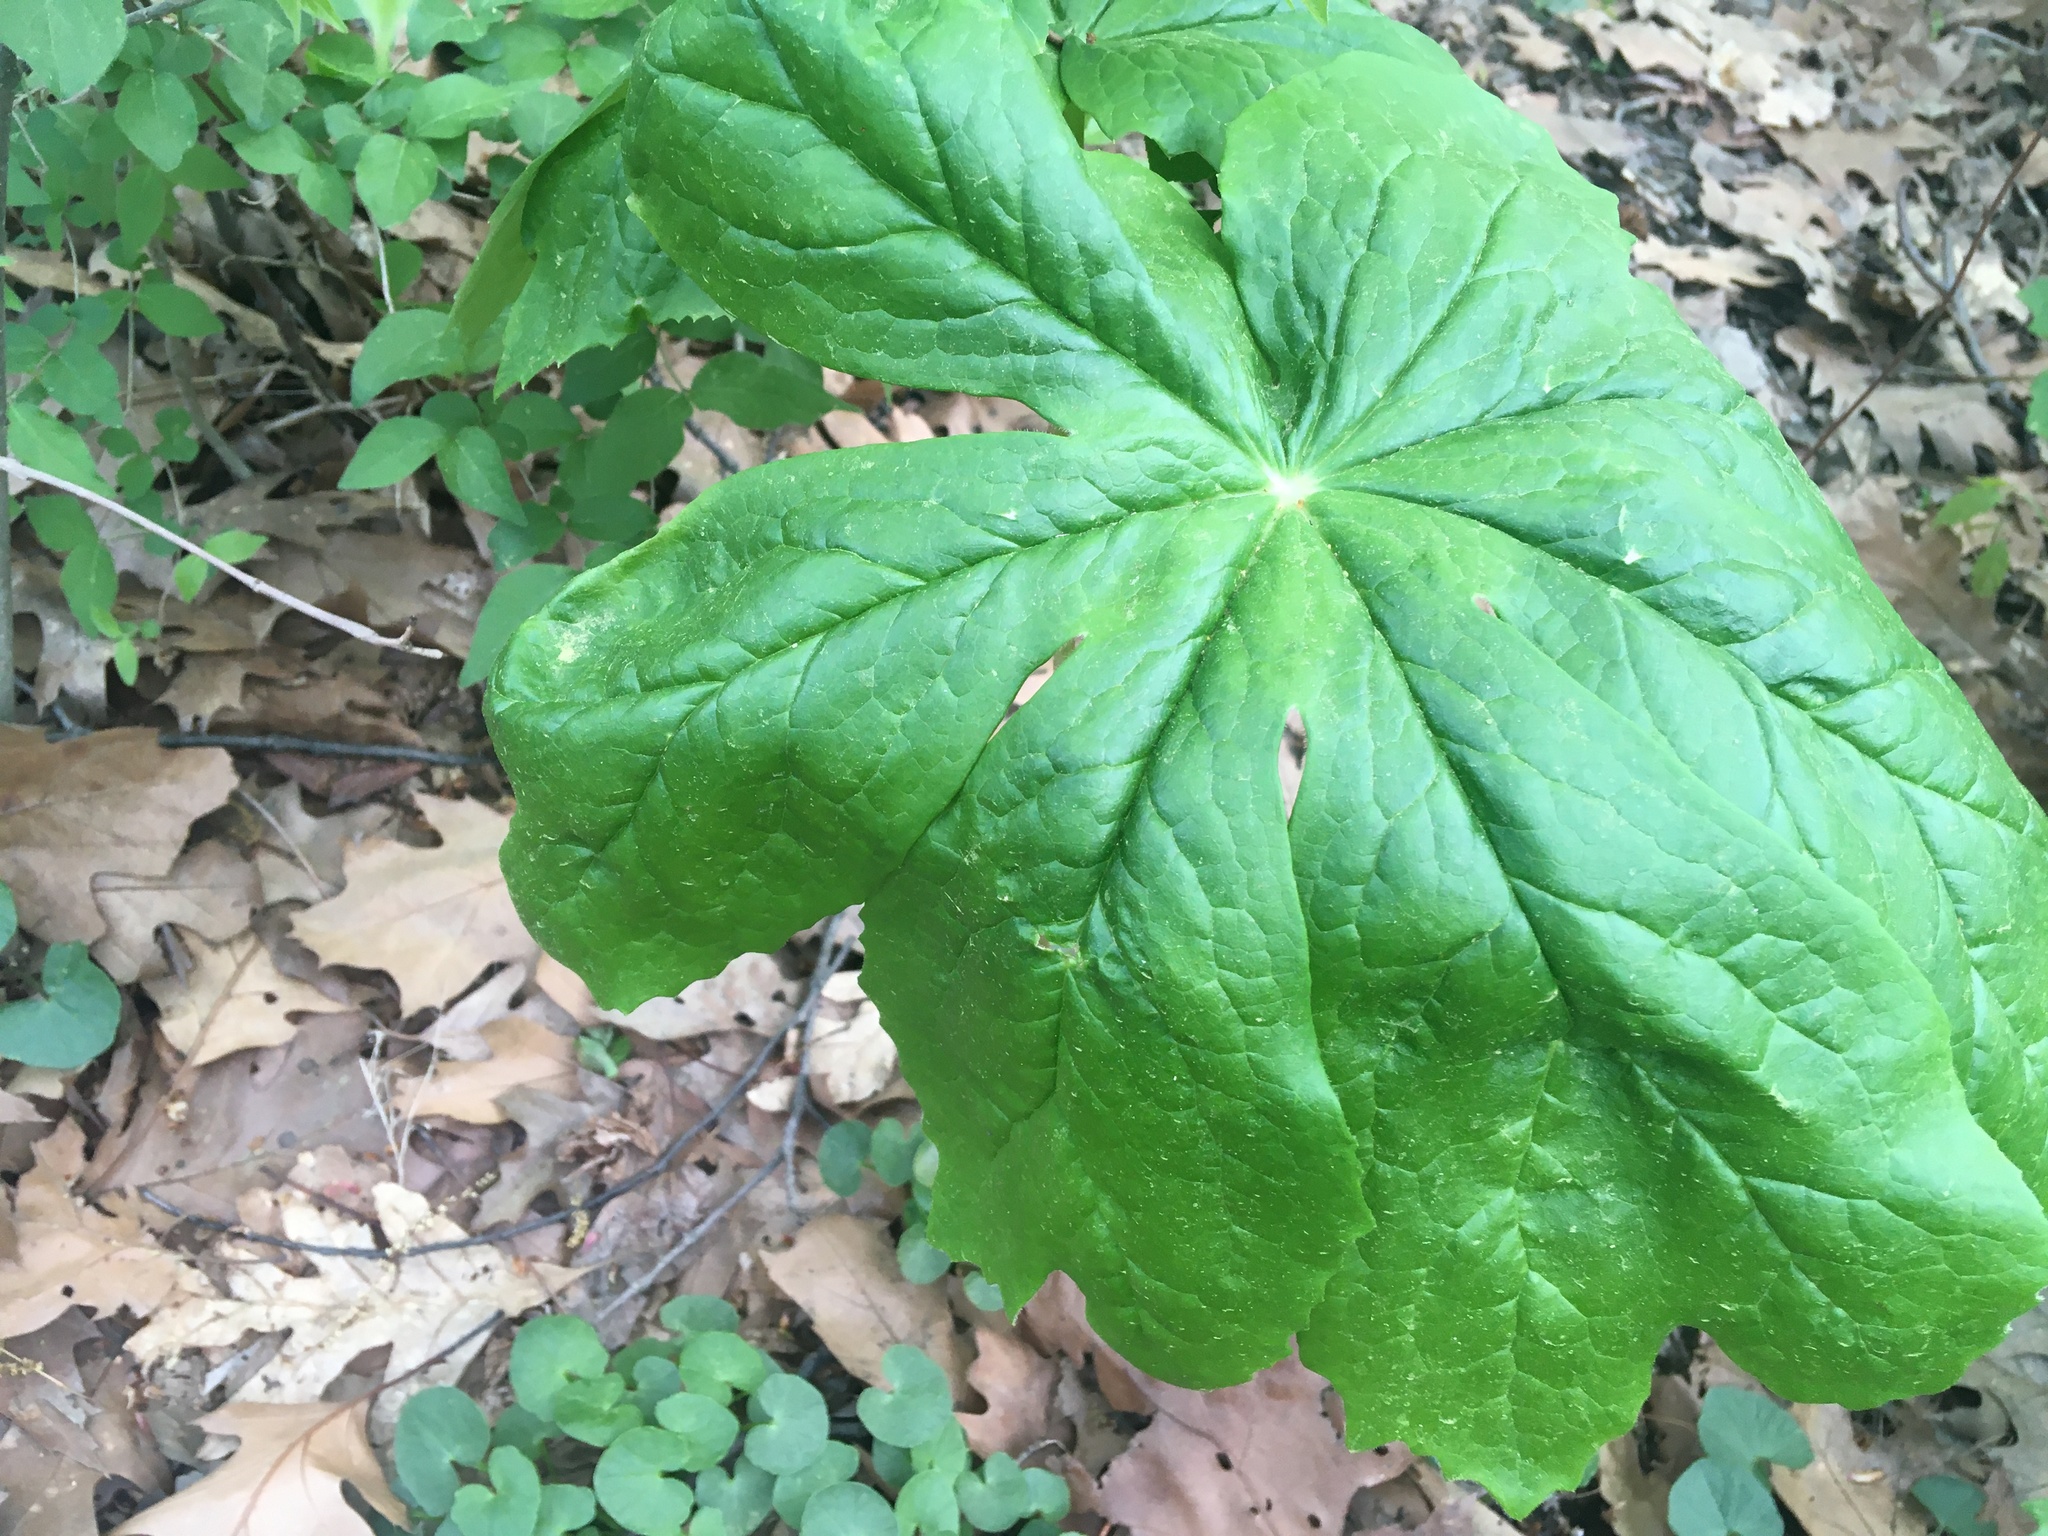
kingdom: Plantae
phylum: Tracheophyta
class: Magnoliopsida
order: Ranunculales
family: Berberidaceae
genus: Podophyllum
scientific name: Podophyllum peltatum
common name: Wild mandrake
